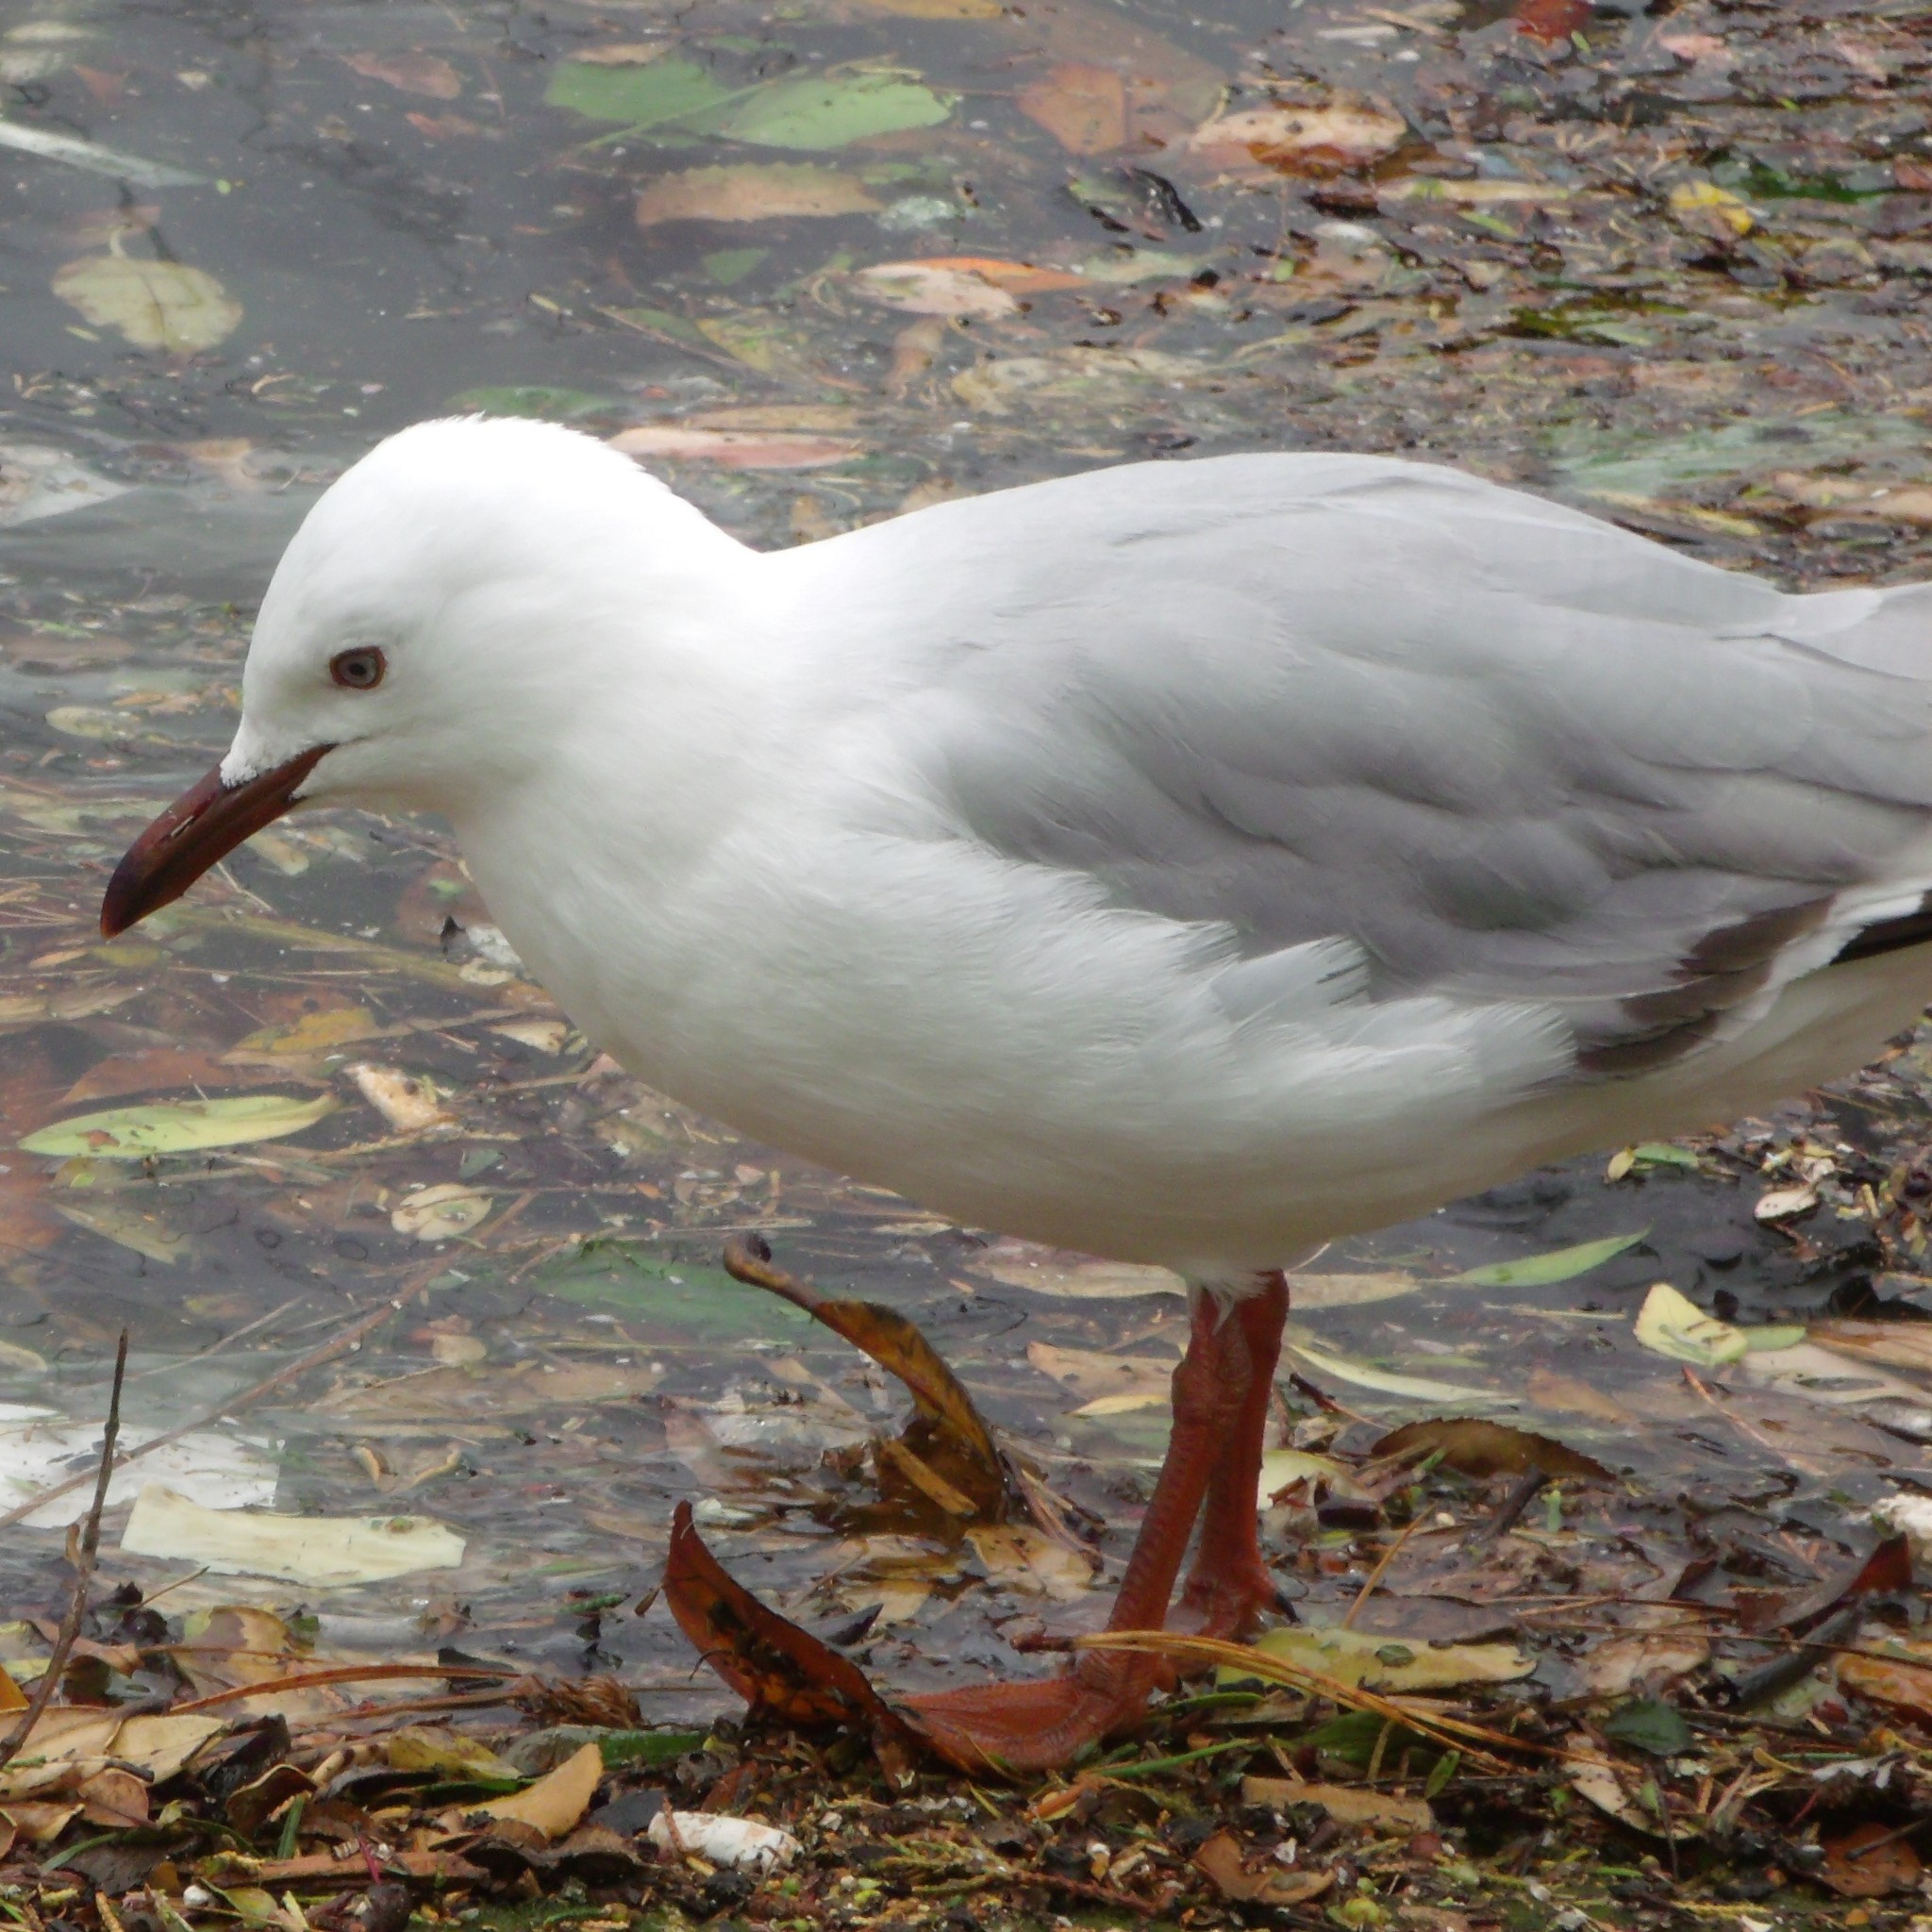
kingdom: Animalia
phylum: Chordata
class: Aves
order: Charadriiformes
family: Laridae
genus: Chroicocephalus
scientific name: Chroicocephalus novaehollandiae
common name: Silver gull
